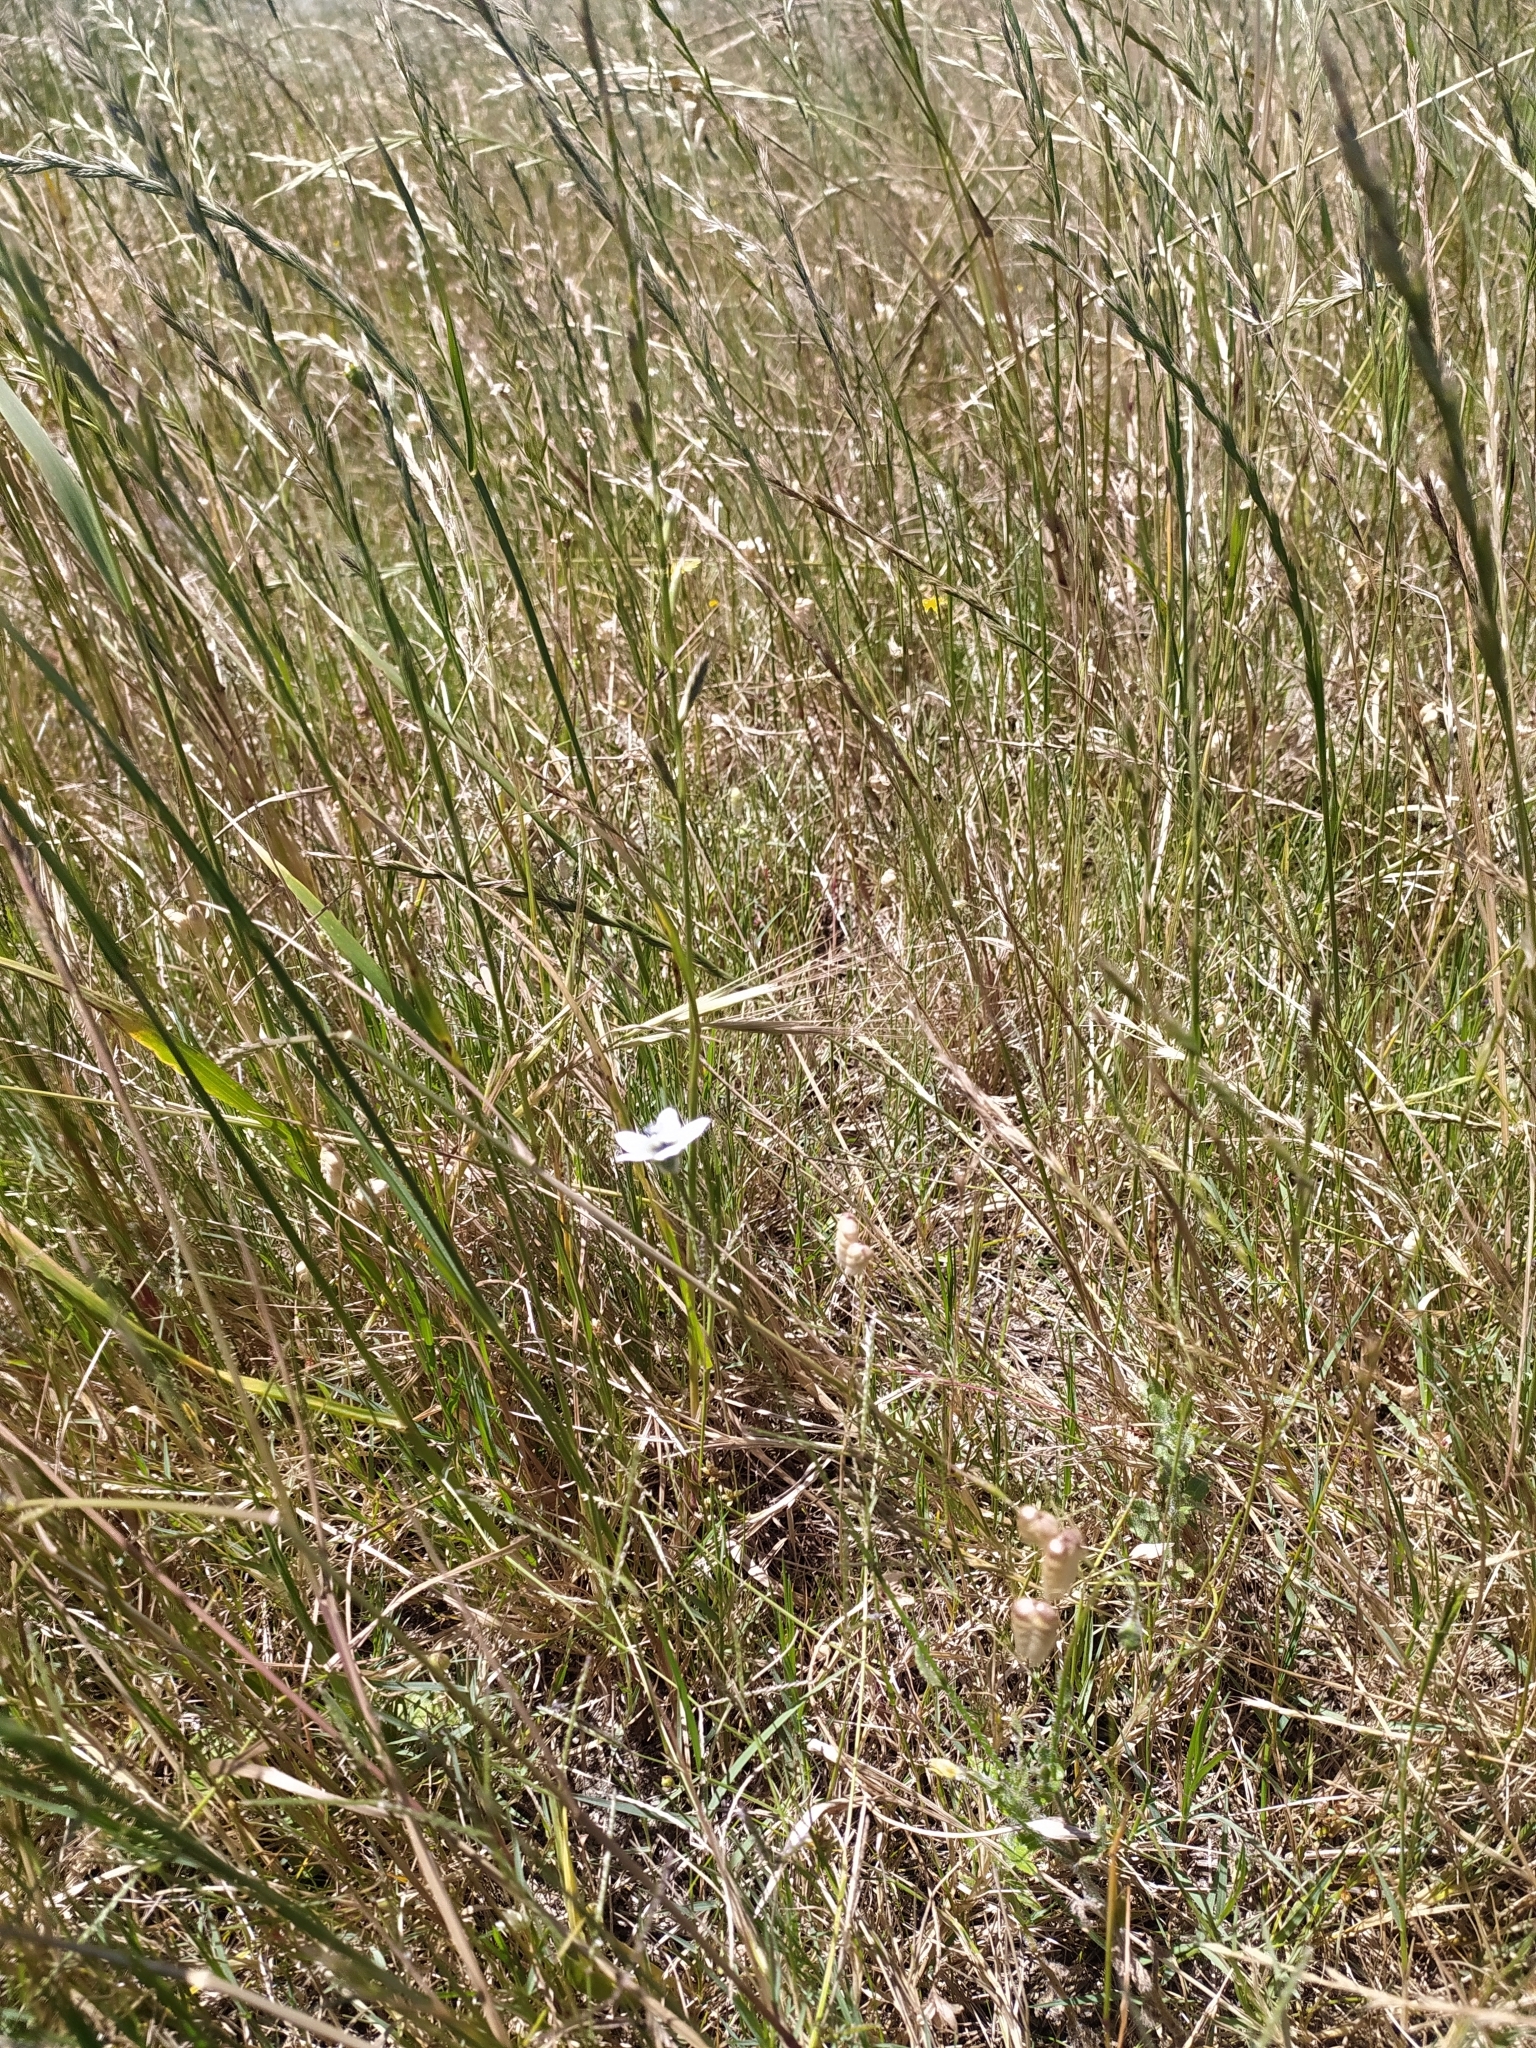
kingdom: Plantae
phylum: Tracheophyta
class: Magnoliopsida
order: Asterales
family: Campanulaceae
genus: Wahlenbergia
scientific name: Wahlenbergia capensis
